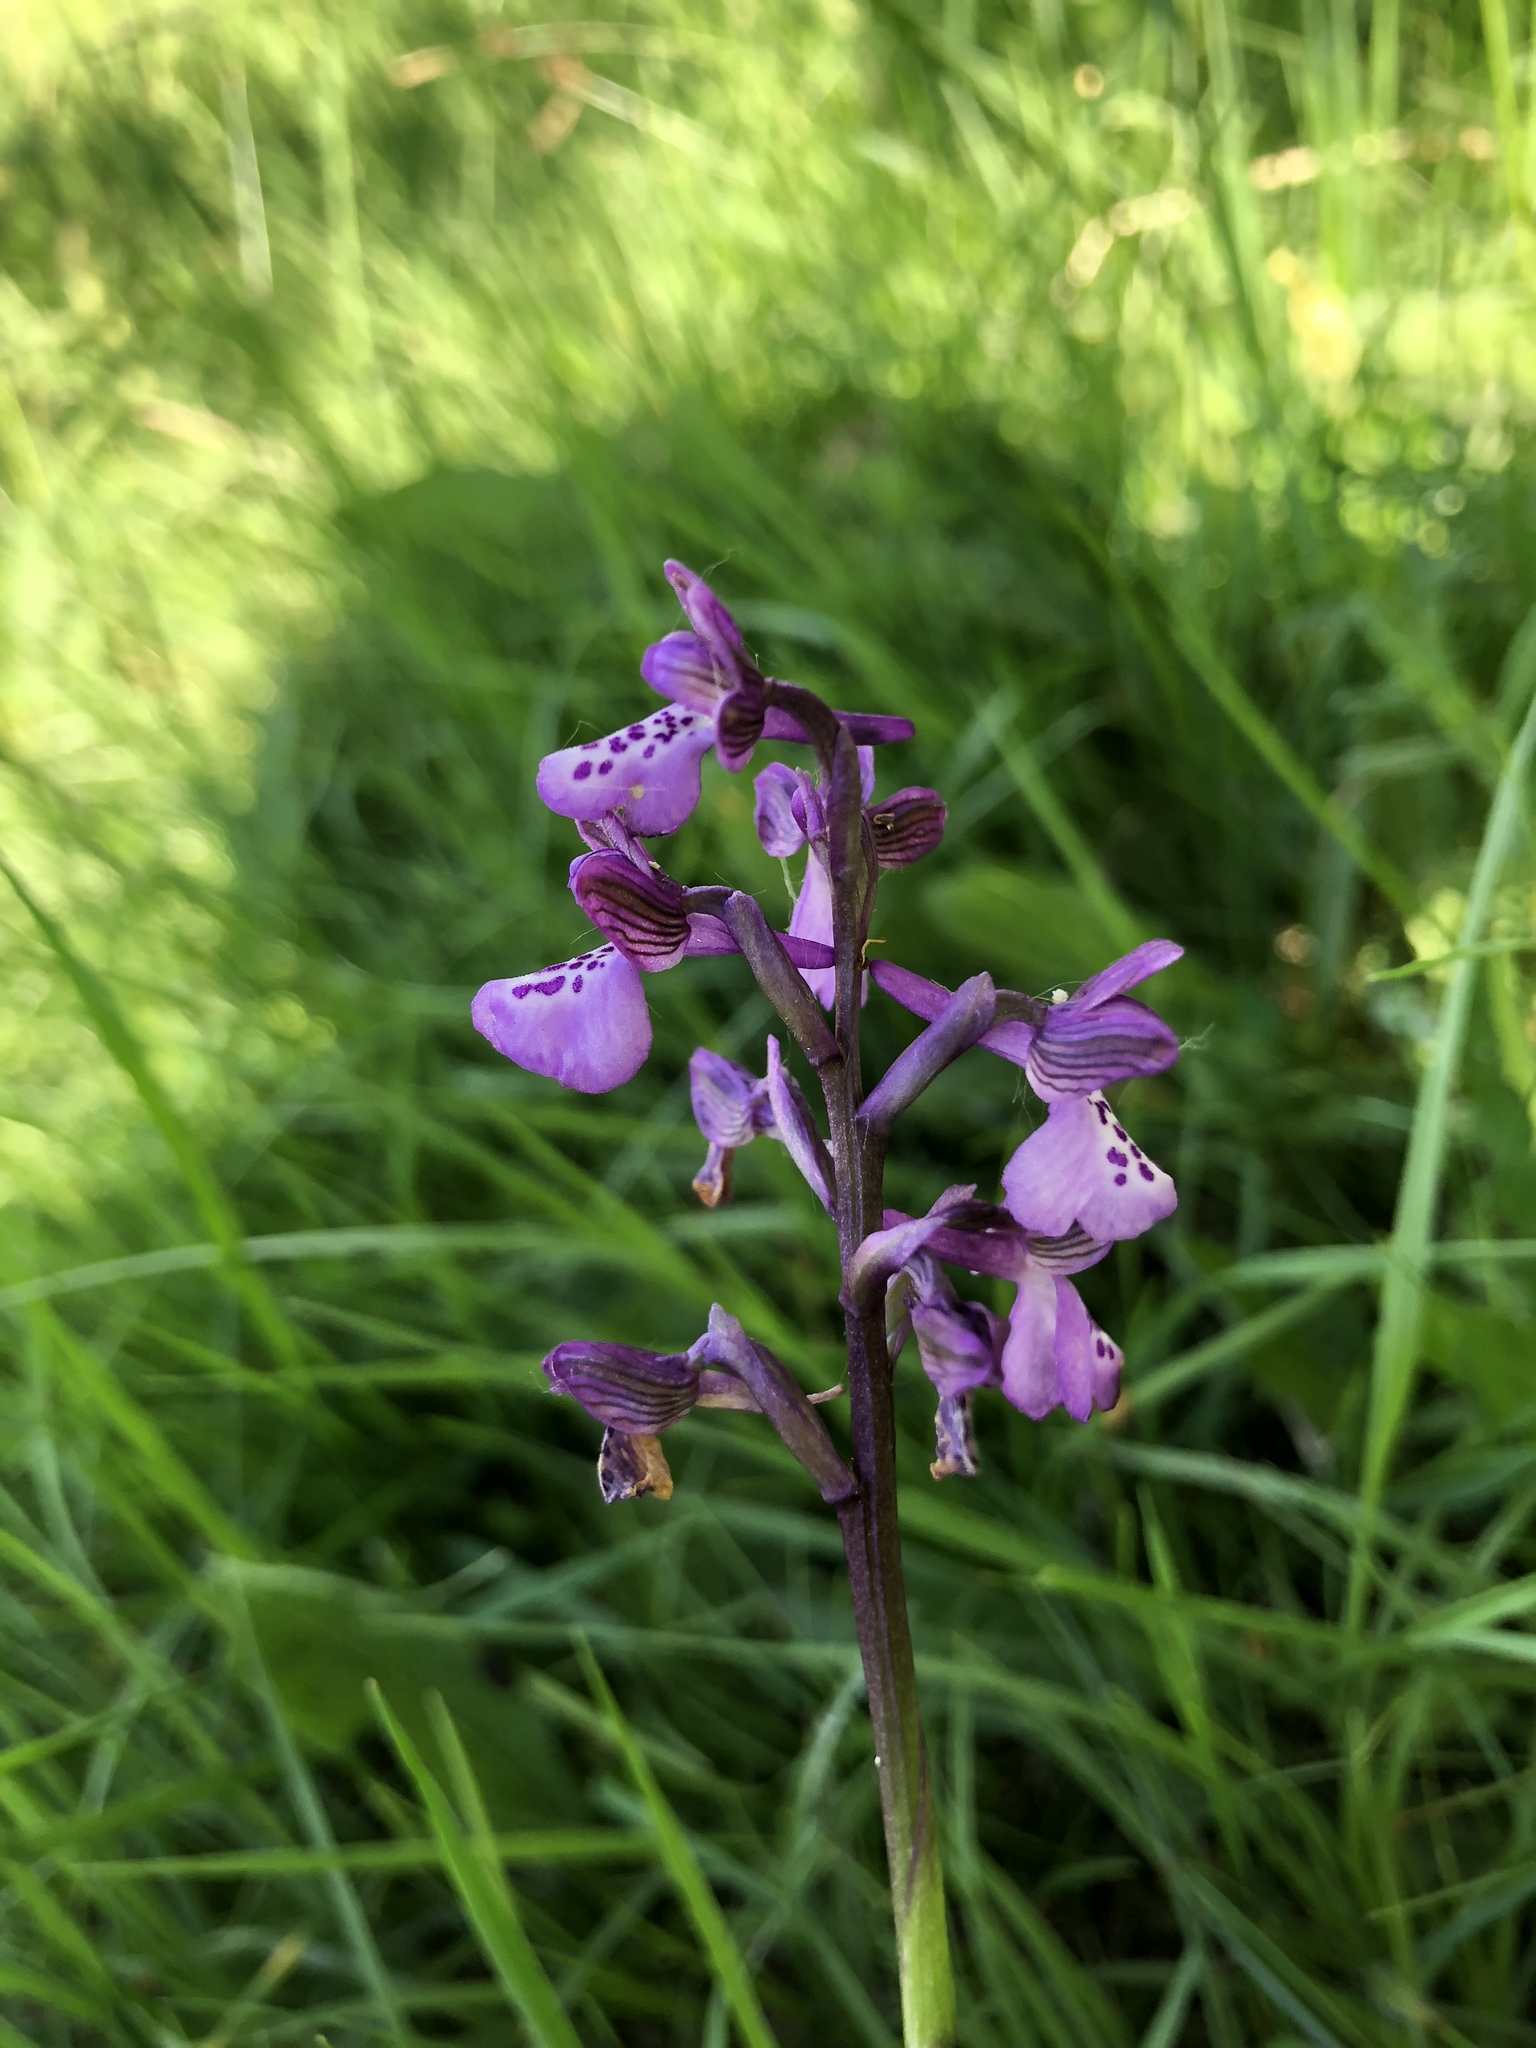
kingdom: Plantae
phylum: Tracheophyta
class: Liliopsida
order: Asparagales
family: Orchidaceae
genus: Anacamptis
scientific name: Anacamptis morio
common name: Green-winged orchid
